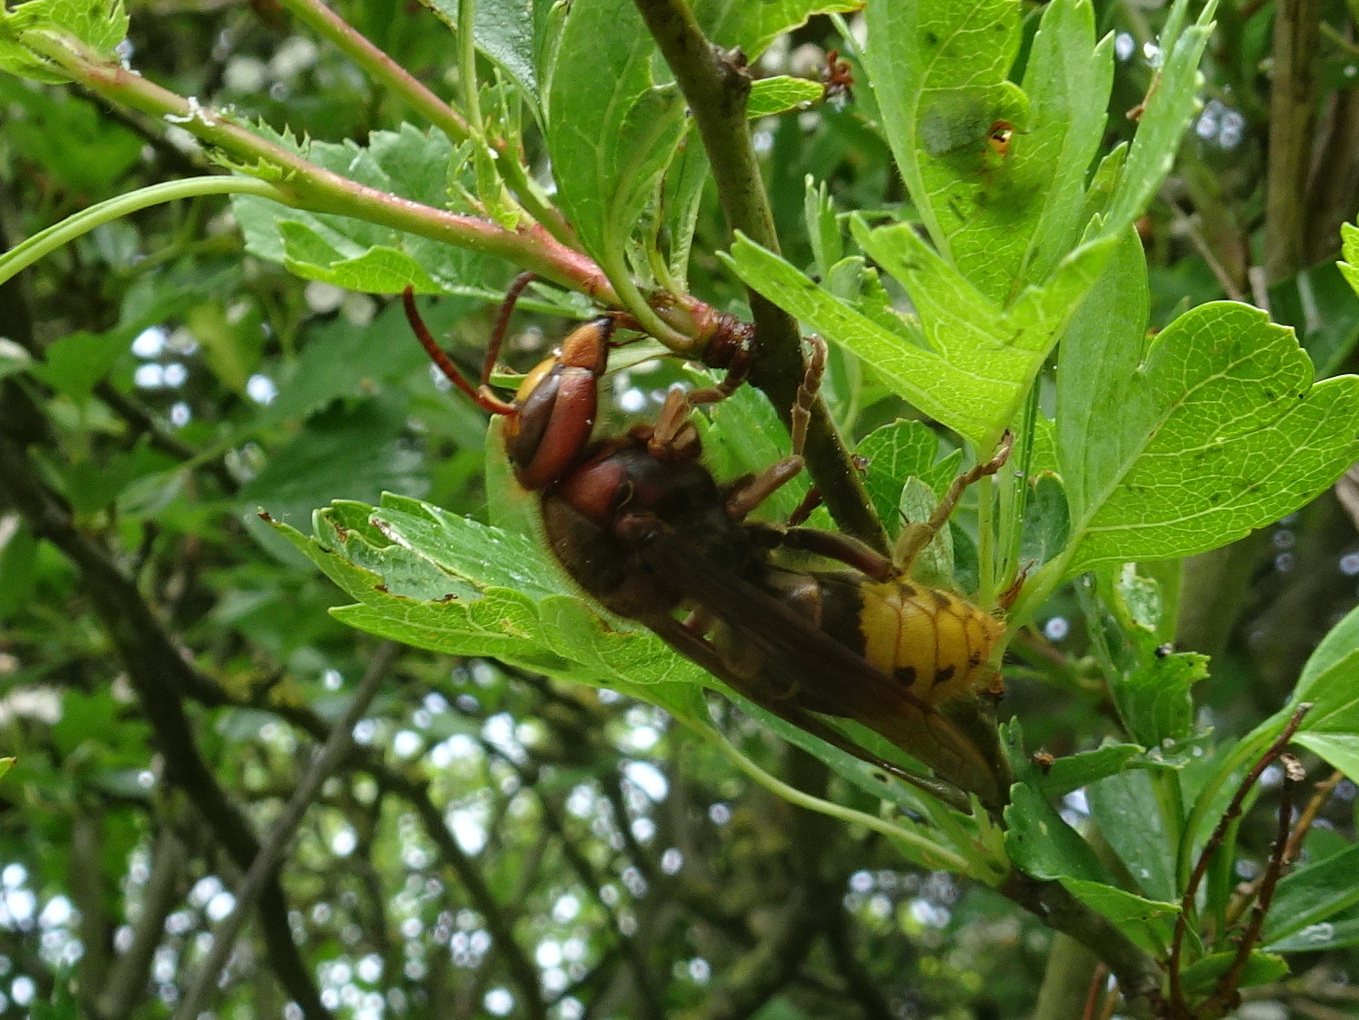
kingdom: Animalia
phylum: Arthropoda
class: Insecta
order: Hymenoptera
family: Vespidae
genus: Vespa
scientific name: Vespa crabro
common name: Hornet
